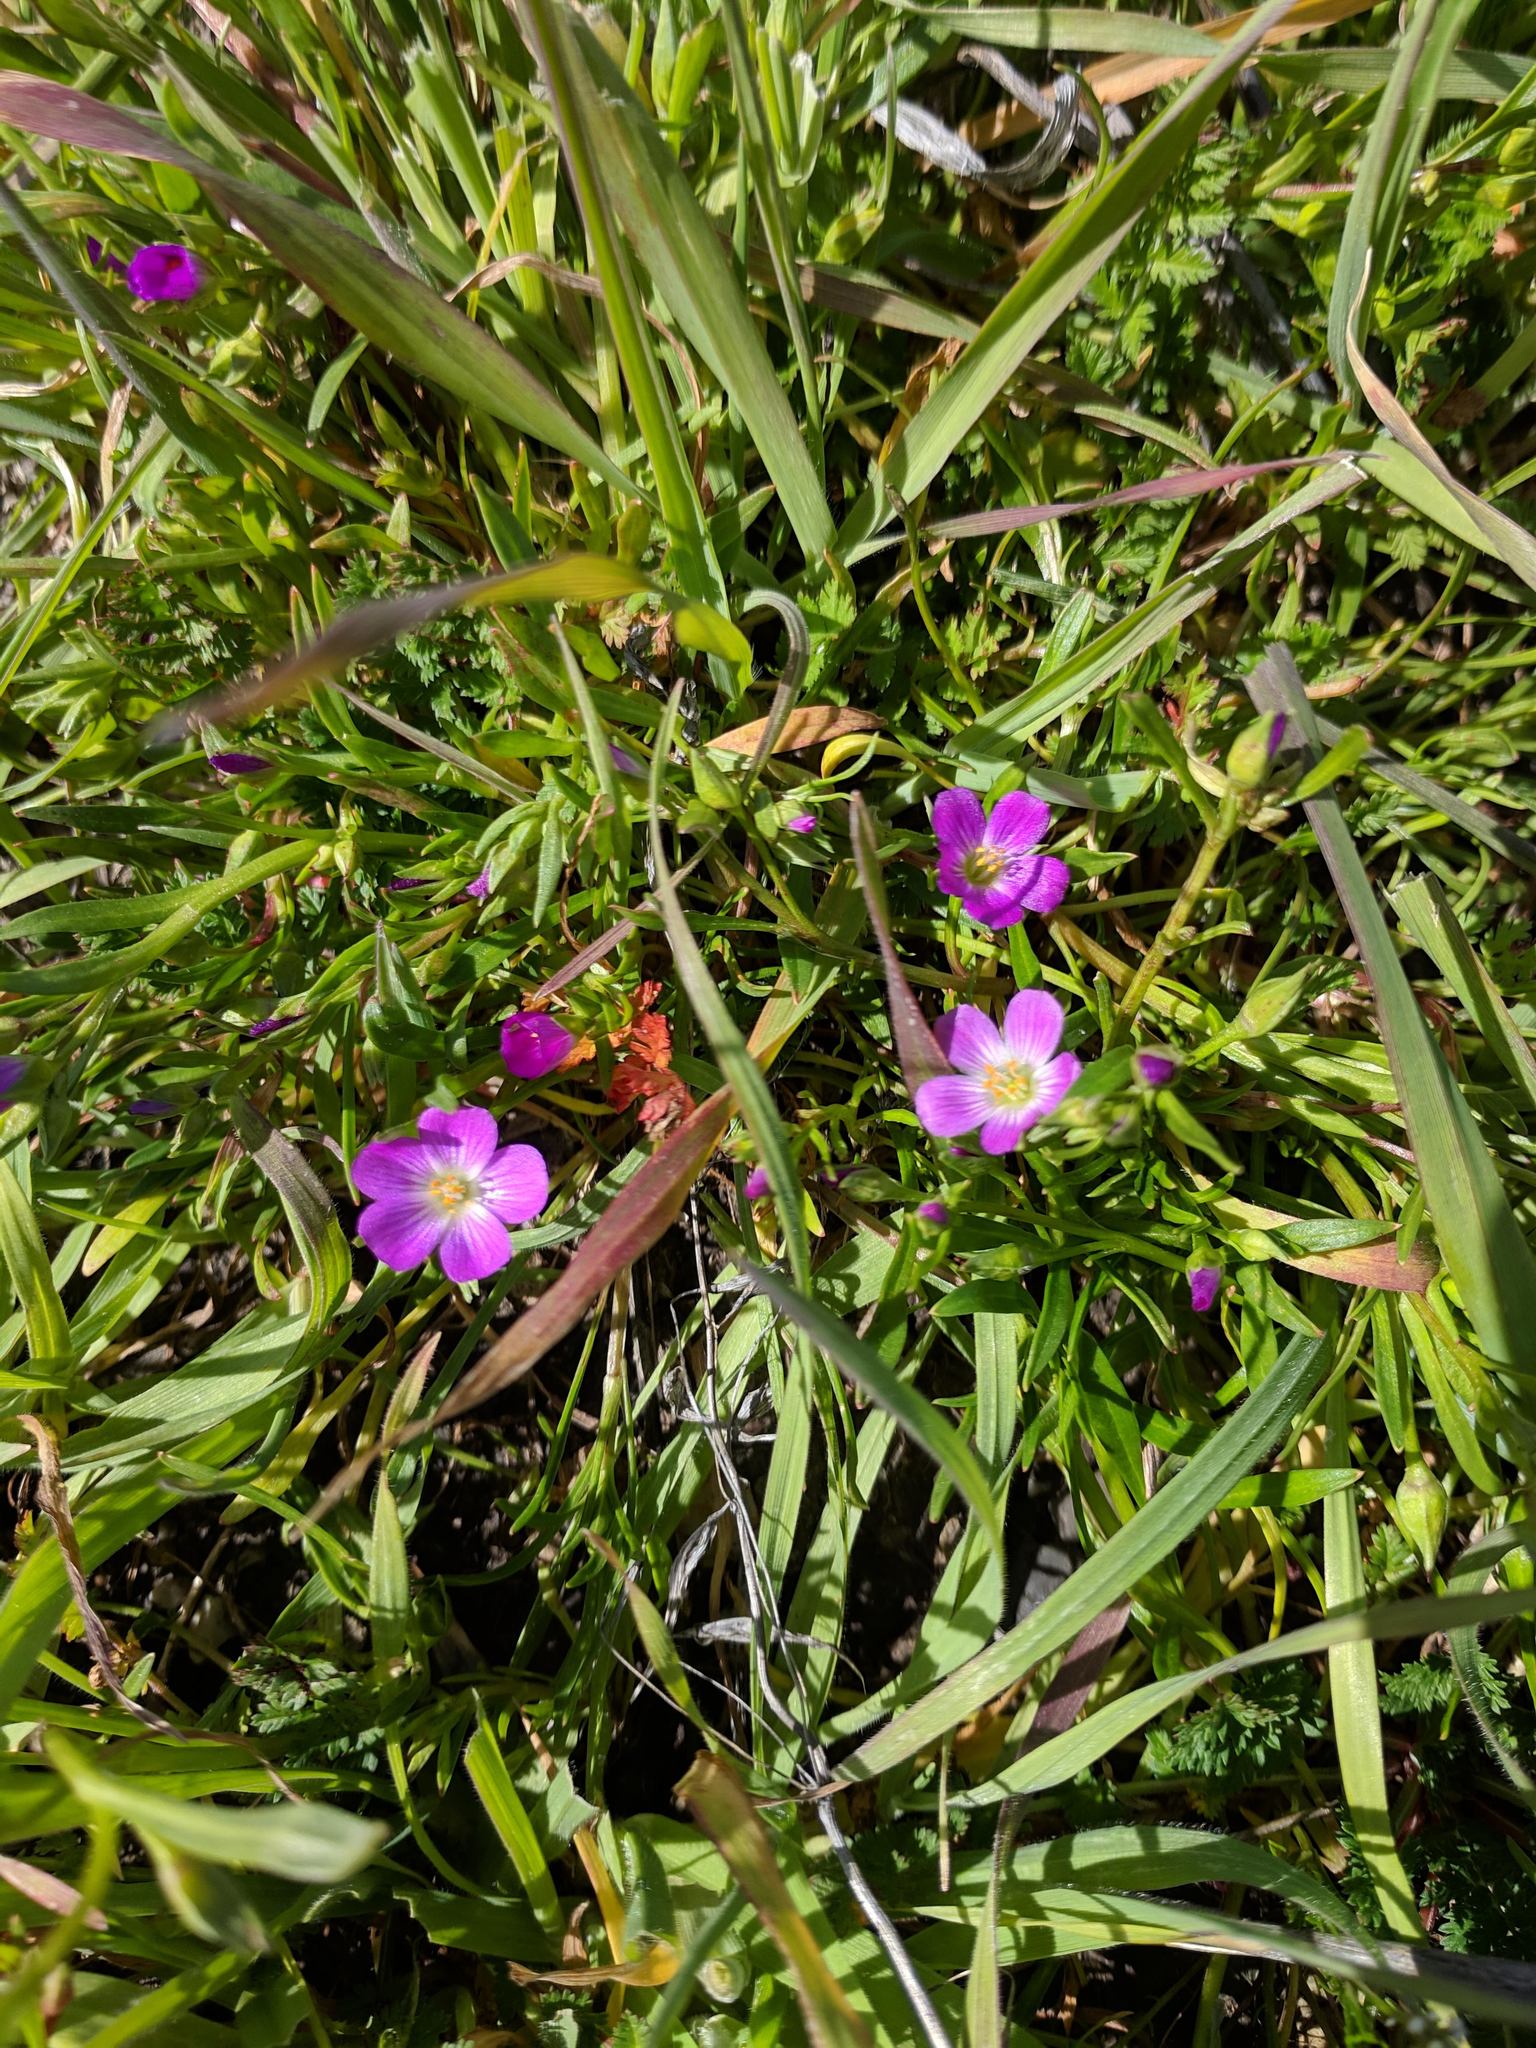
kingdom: Plantae
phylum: Tracheophyta
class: Magnoliopsida
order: Caryophyllales
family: Montiaceae
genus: Calandrinia
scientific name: Calandrinia menziesii
